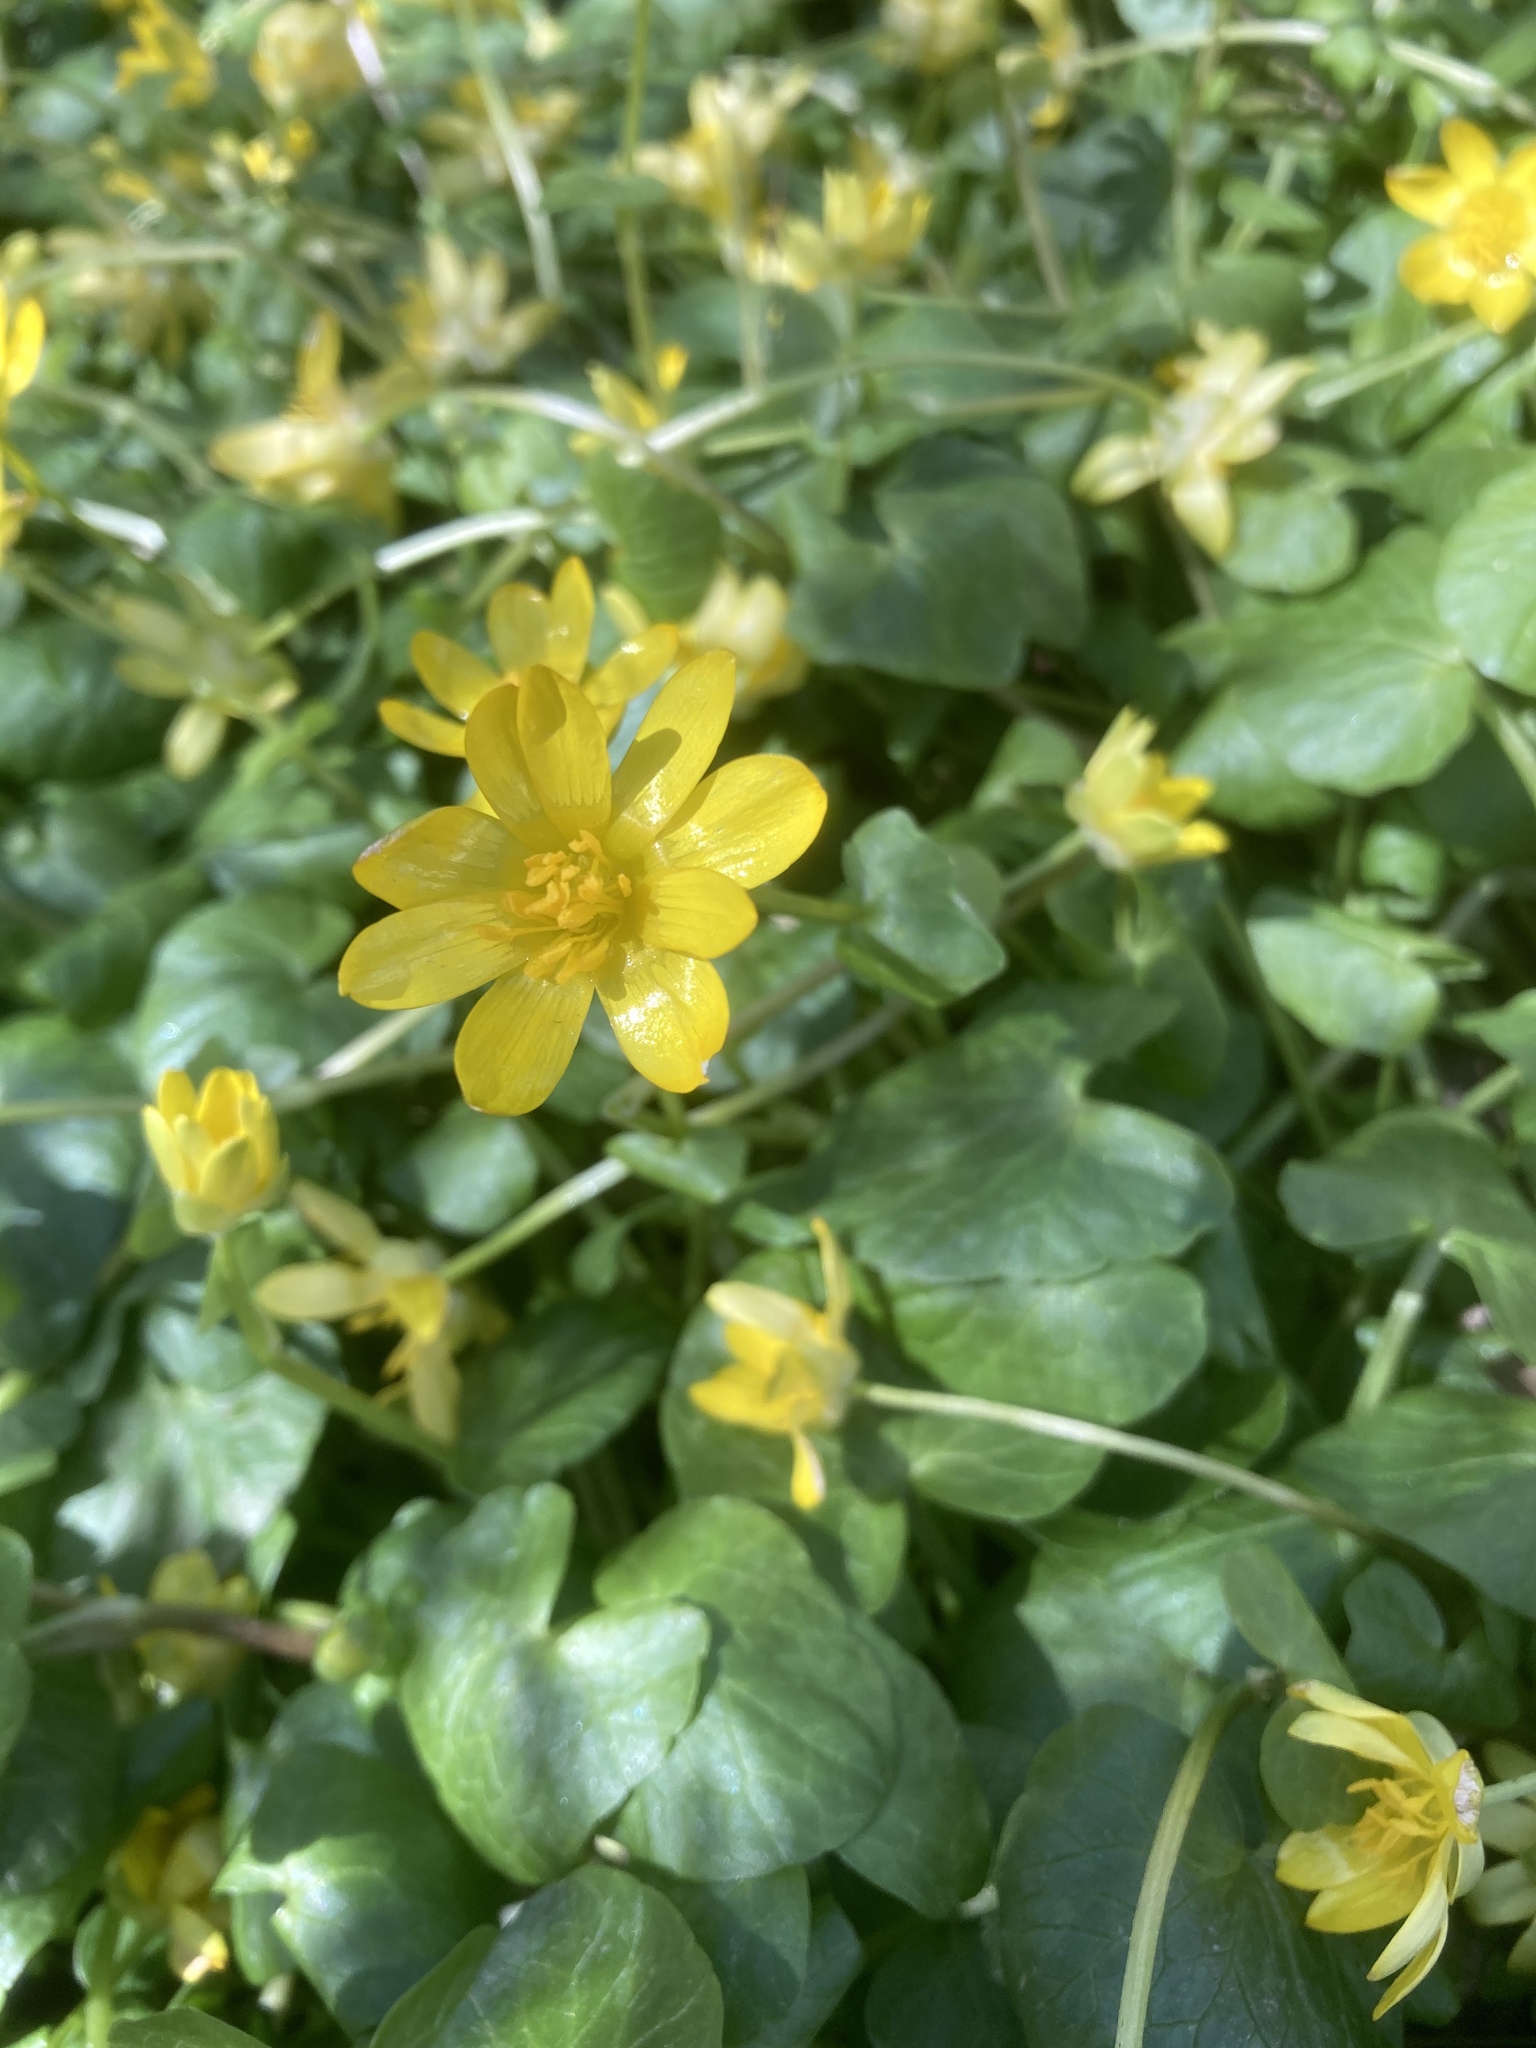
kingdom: Plantae
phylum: Tracheophyta
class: Magnoliopsida
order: Ranunculales
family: Ranunculaceae
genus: Ficaria
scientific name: Ficaria verna
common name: Lesser celandine
